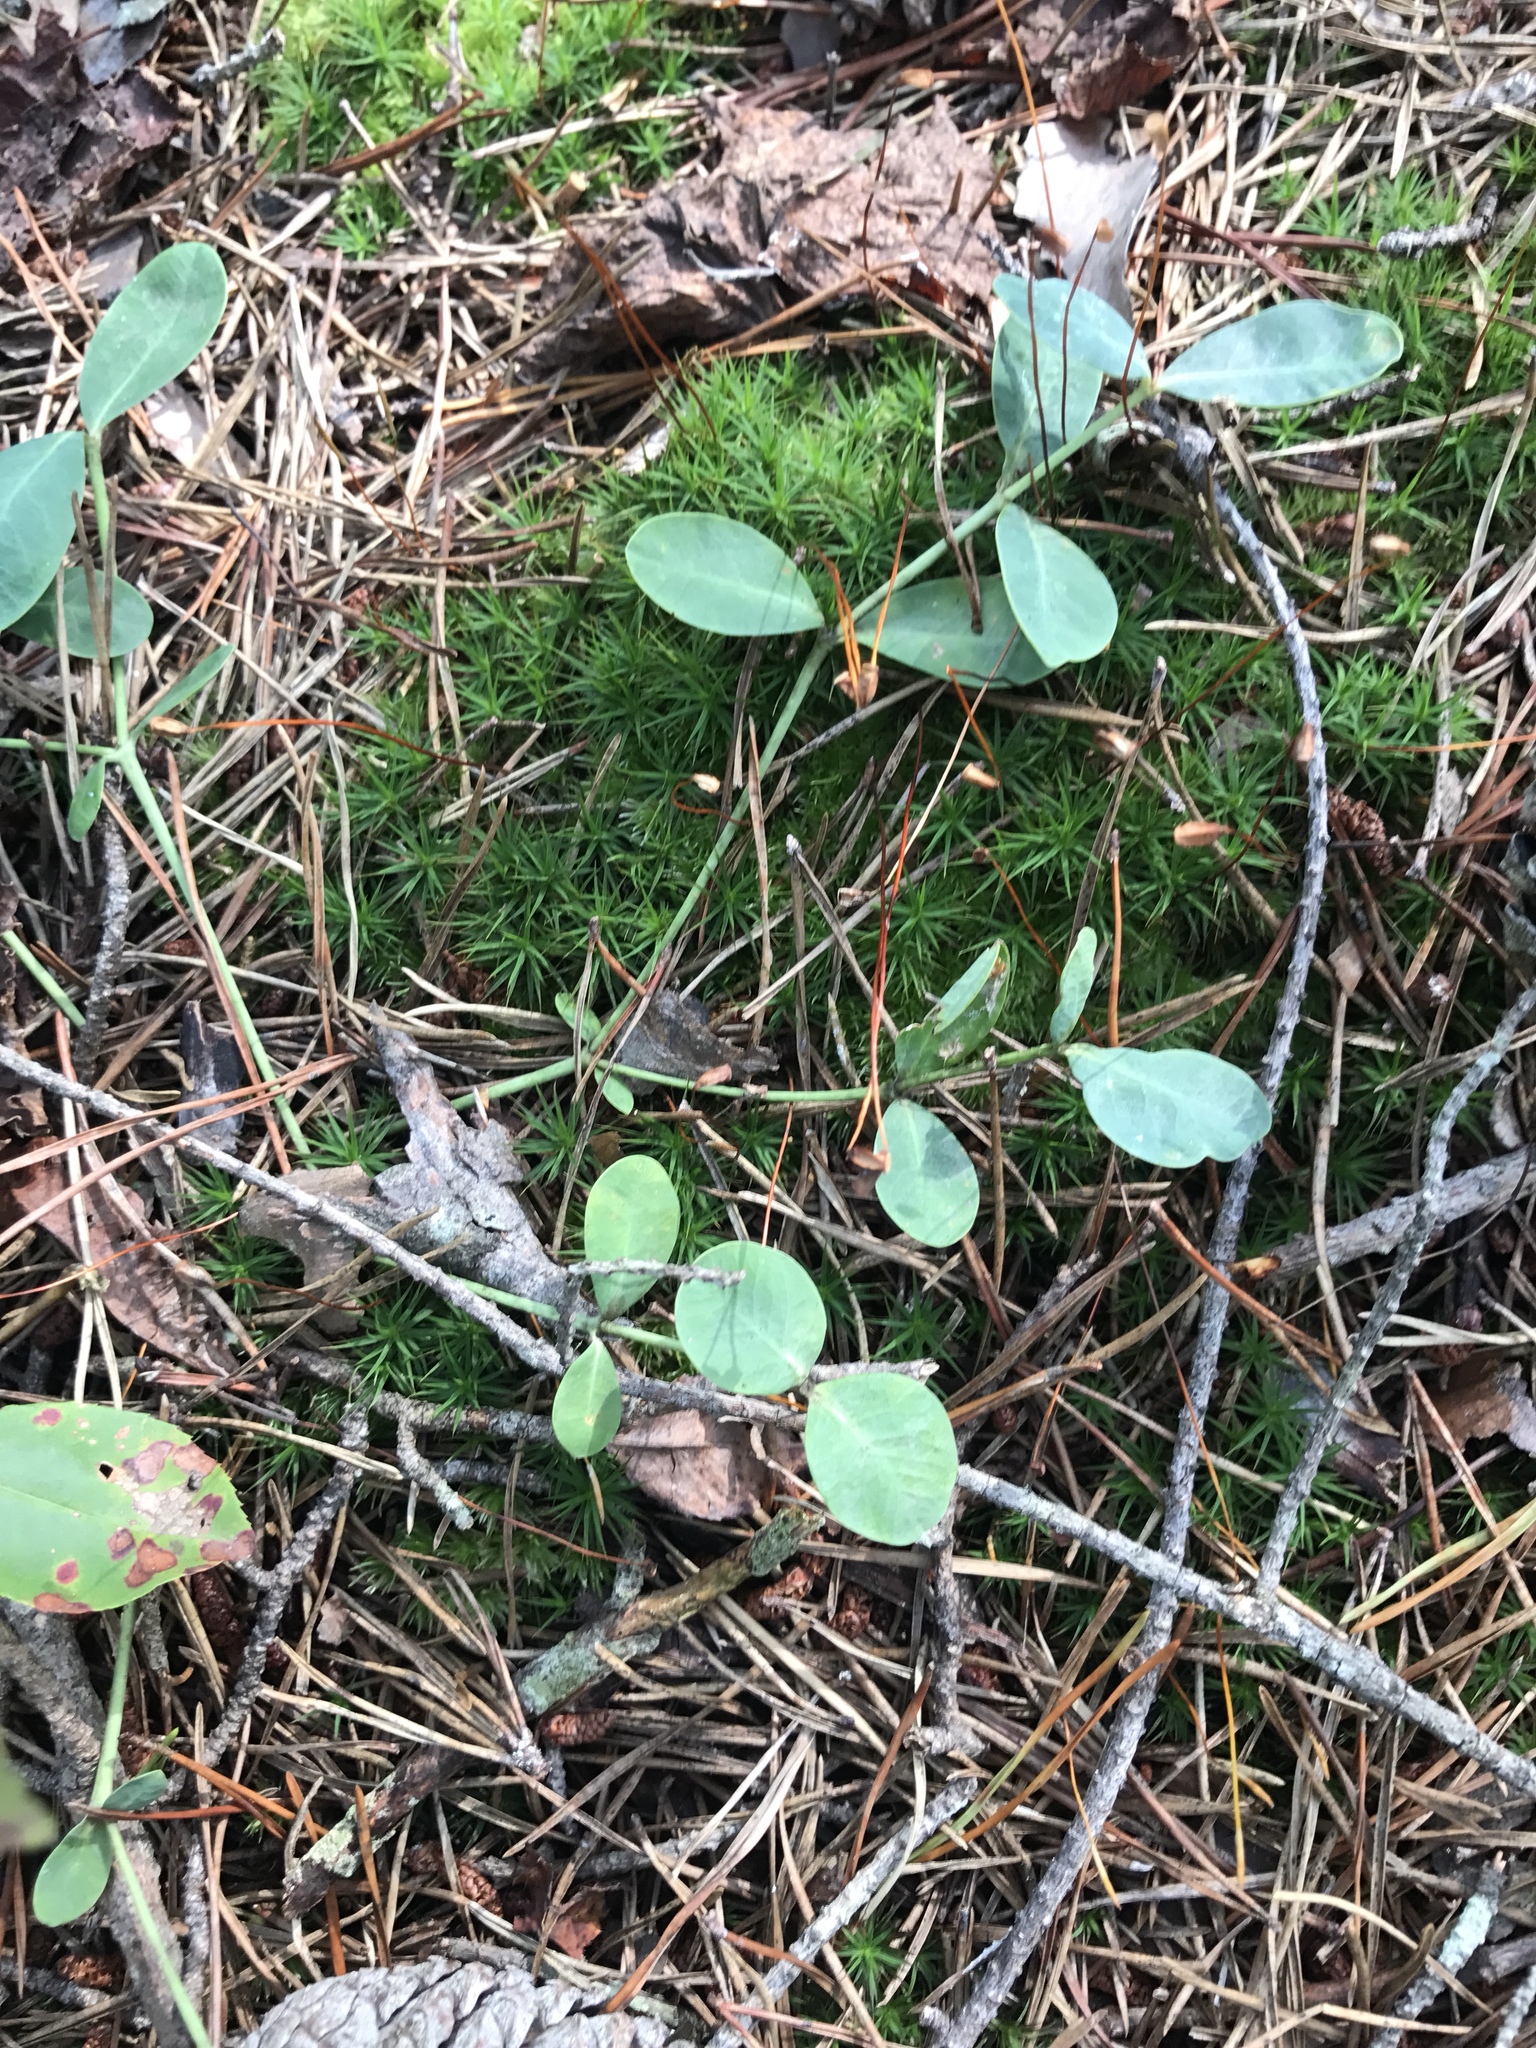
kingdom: Plantae
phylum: Tracheophyta
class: Magnoliopsida
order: Malpighiales
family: Euphorbiaceae
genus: Euphorbia
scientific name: Euphorbia ipecacuanhae
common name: Carolina ipecac
